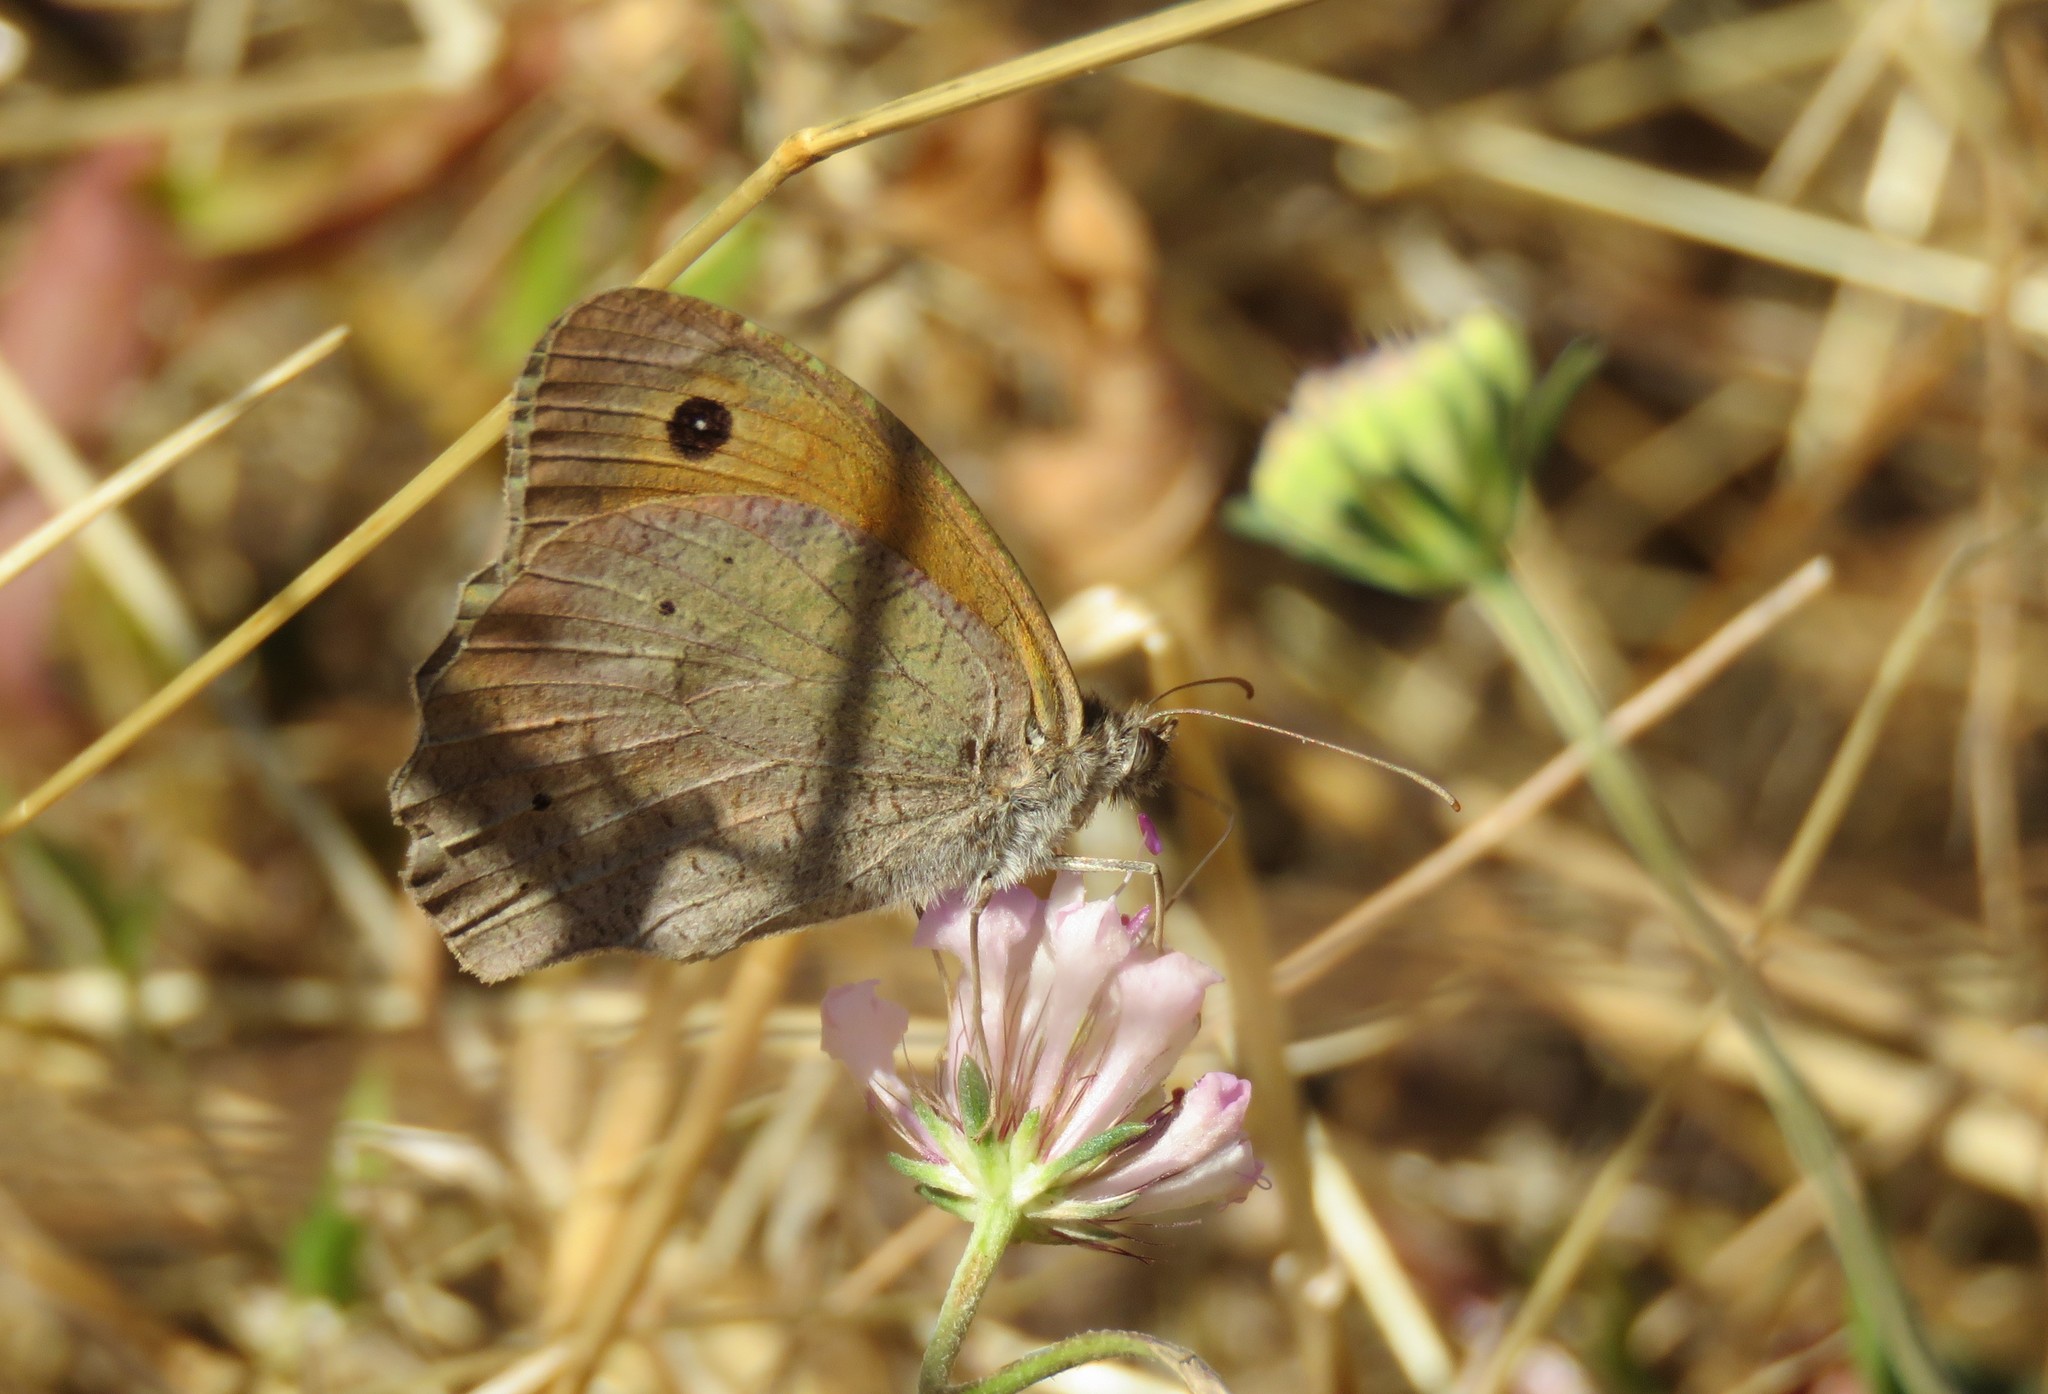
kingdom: Animalia
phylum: Arthropoda
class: Insecta
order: Lepidoptera
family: Nymphalidae
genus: Maniola
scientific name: Maniola jurtina
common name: Meadow brown
